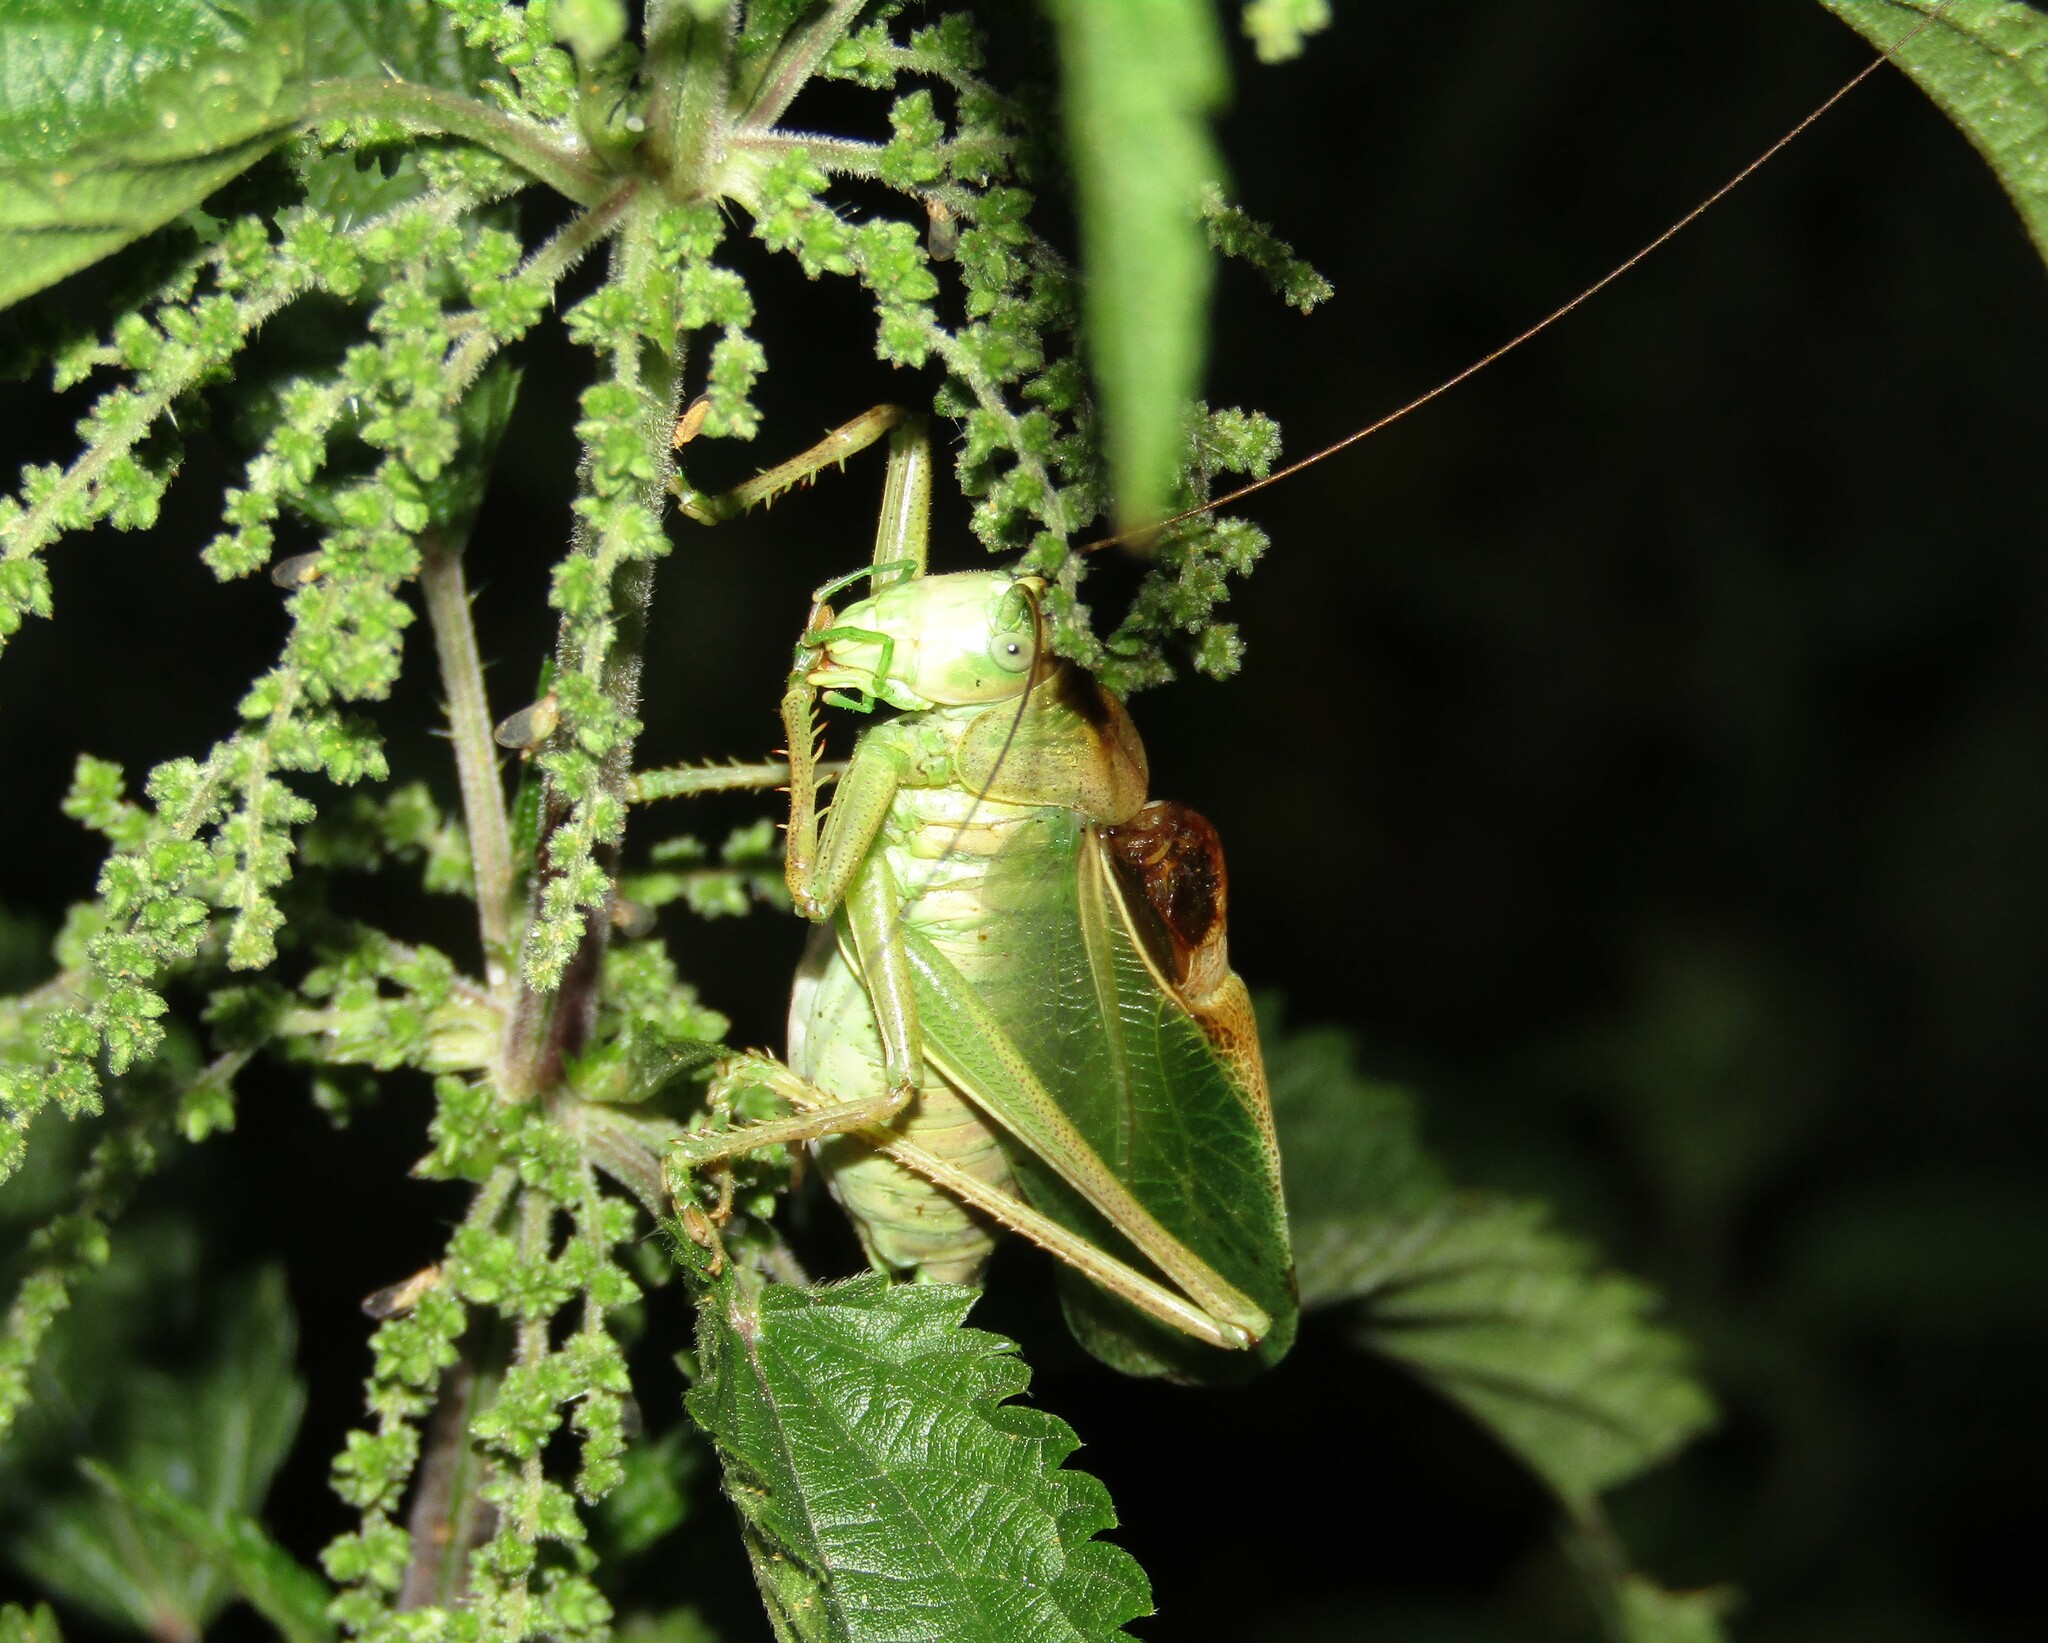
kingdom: Animalia
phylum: Arthropoda
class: Insecta
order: Orthoptera
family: Tettigoniidae
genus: Tettigonia
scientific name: Tettigonia cantans
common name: Upland green bush-cricket
